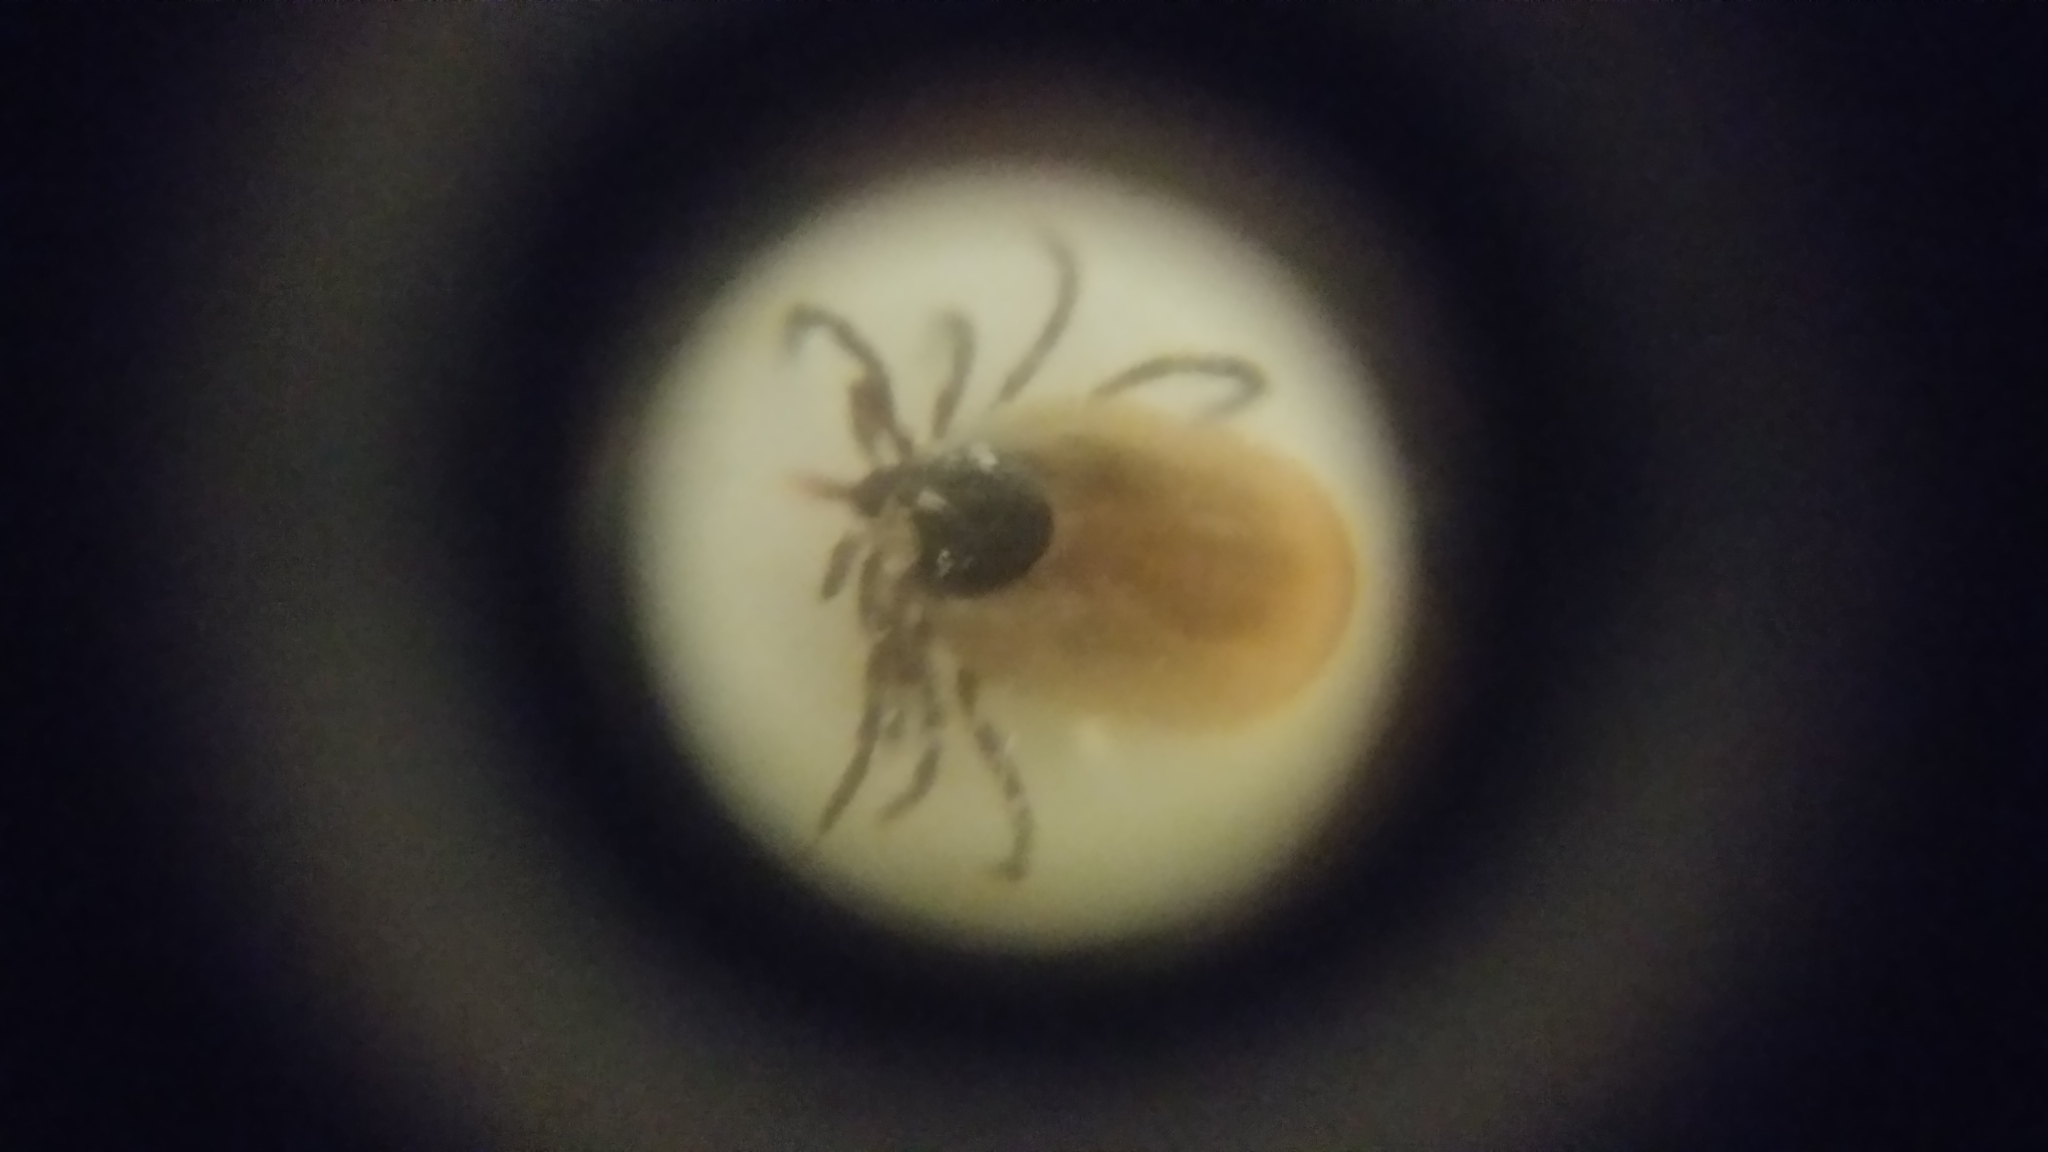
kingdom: Animalia
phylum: Arthropoda
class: Arachnida
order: Ixodida
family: Ixodidae
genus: Ixodes
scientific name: Ixodes scapularis
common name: Black legged tick
